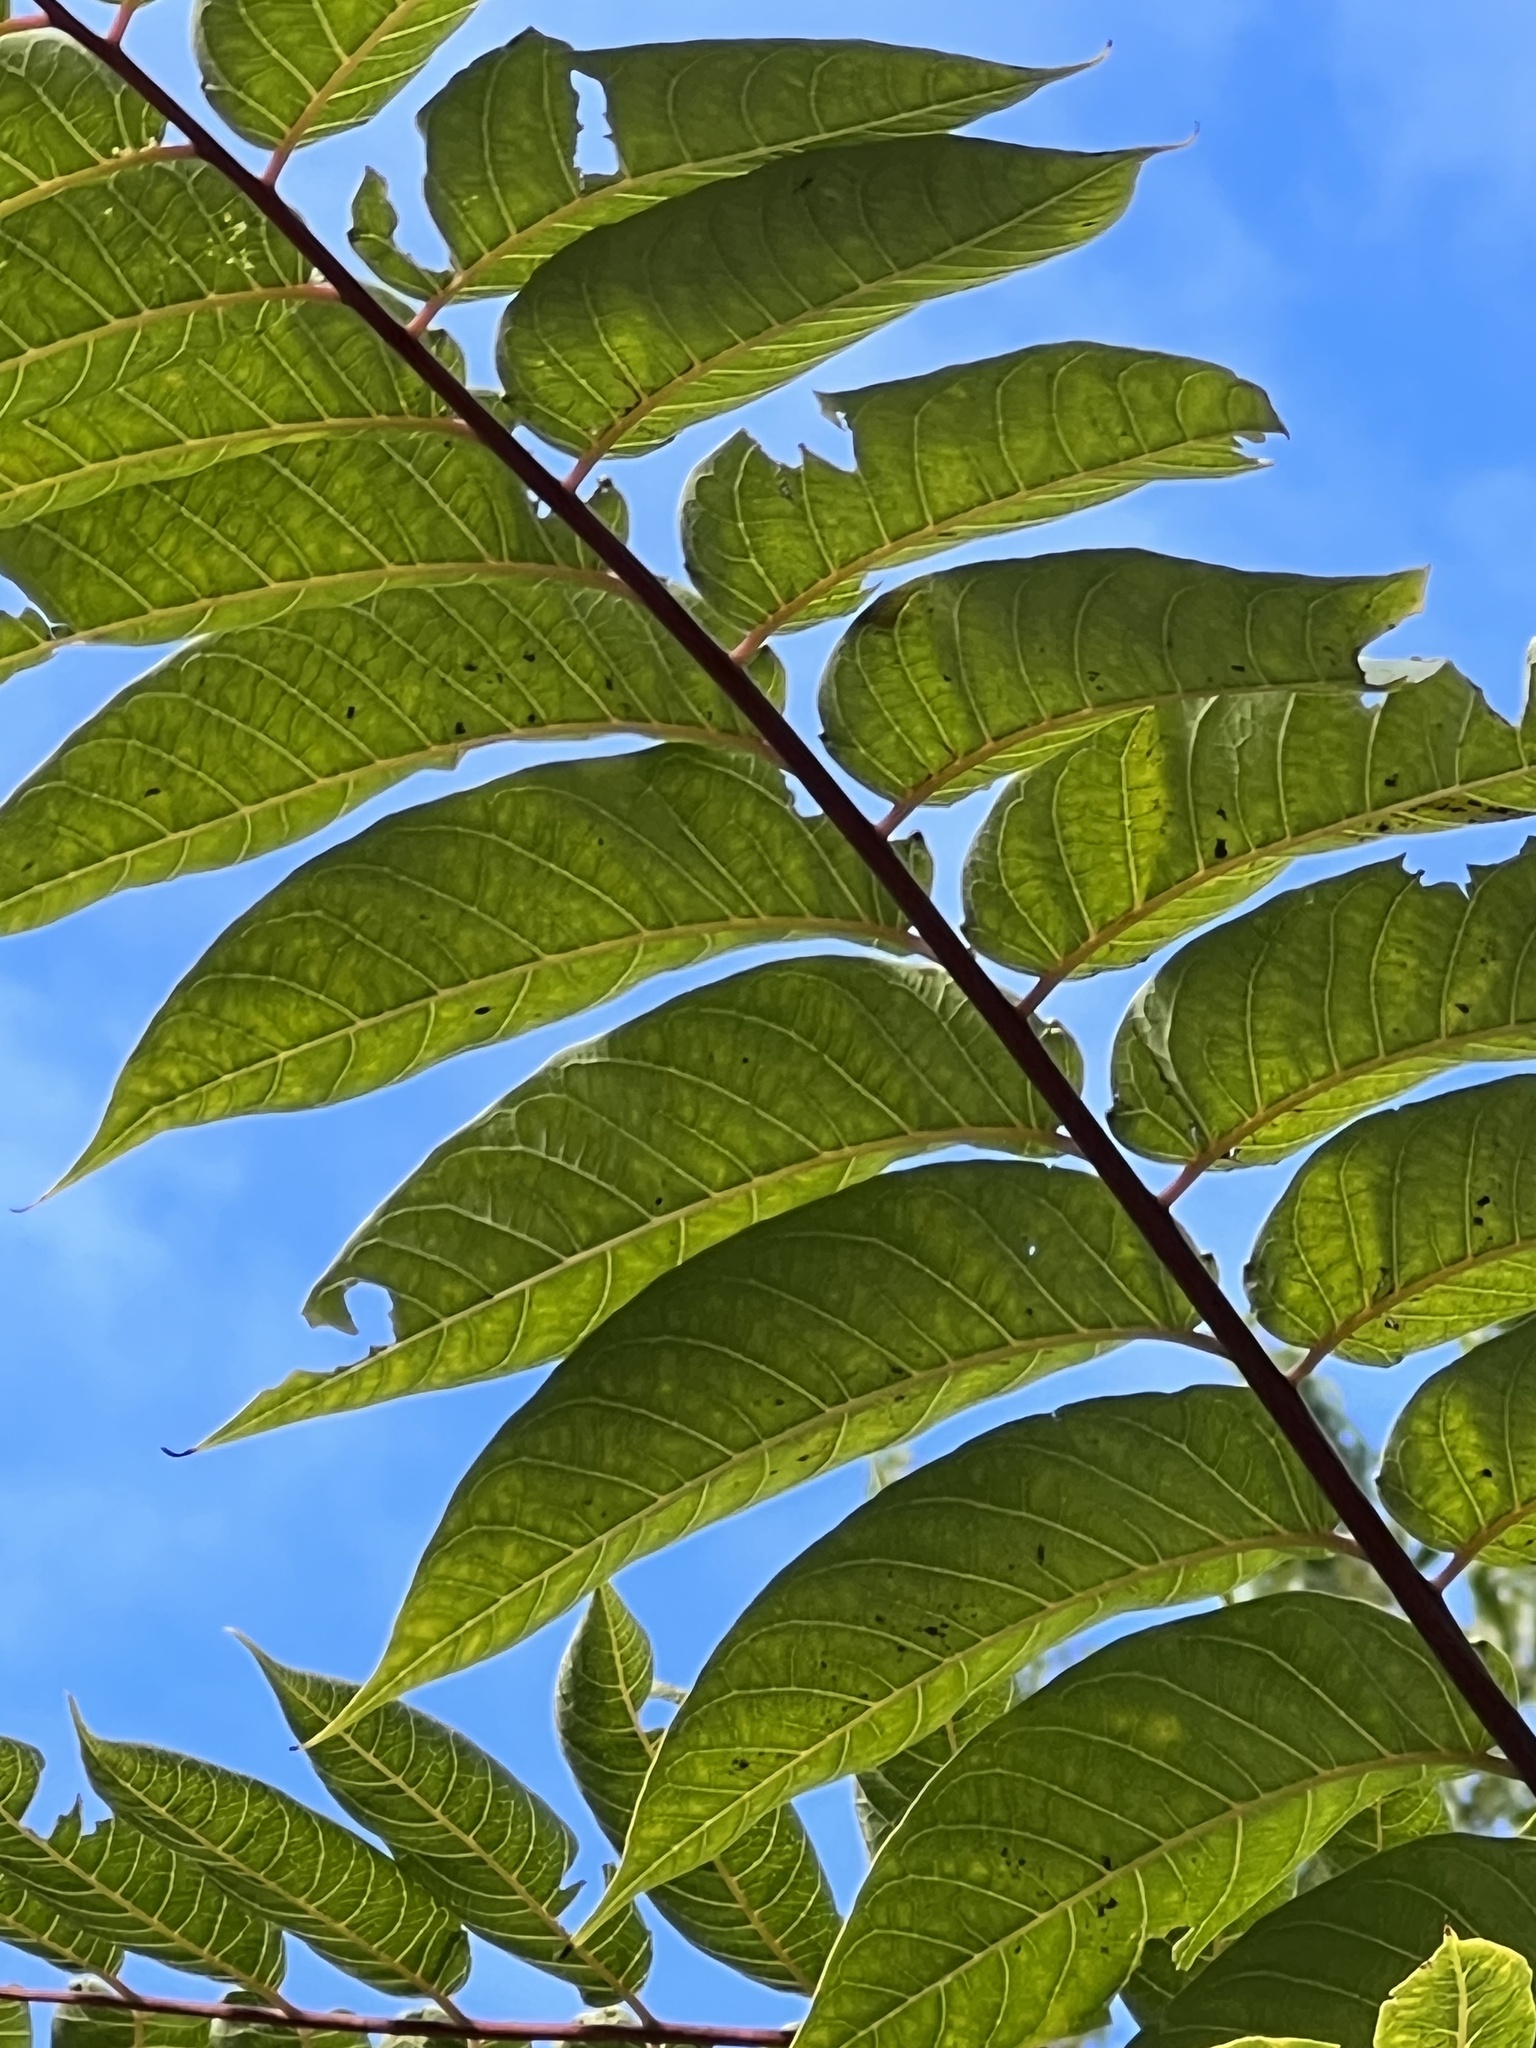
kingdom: Plantae
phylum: Tracheophyta
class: Magnoliopsida
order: Sapindales
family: Simaroubaceae
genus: Ailanthus
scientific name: Ailanthus altissima
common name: Tree-of-heaven
